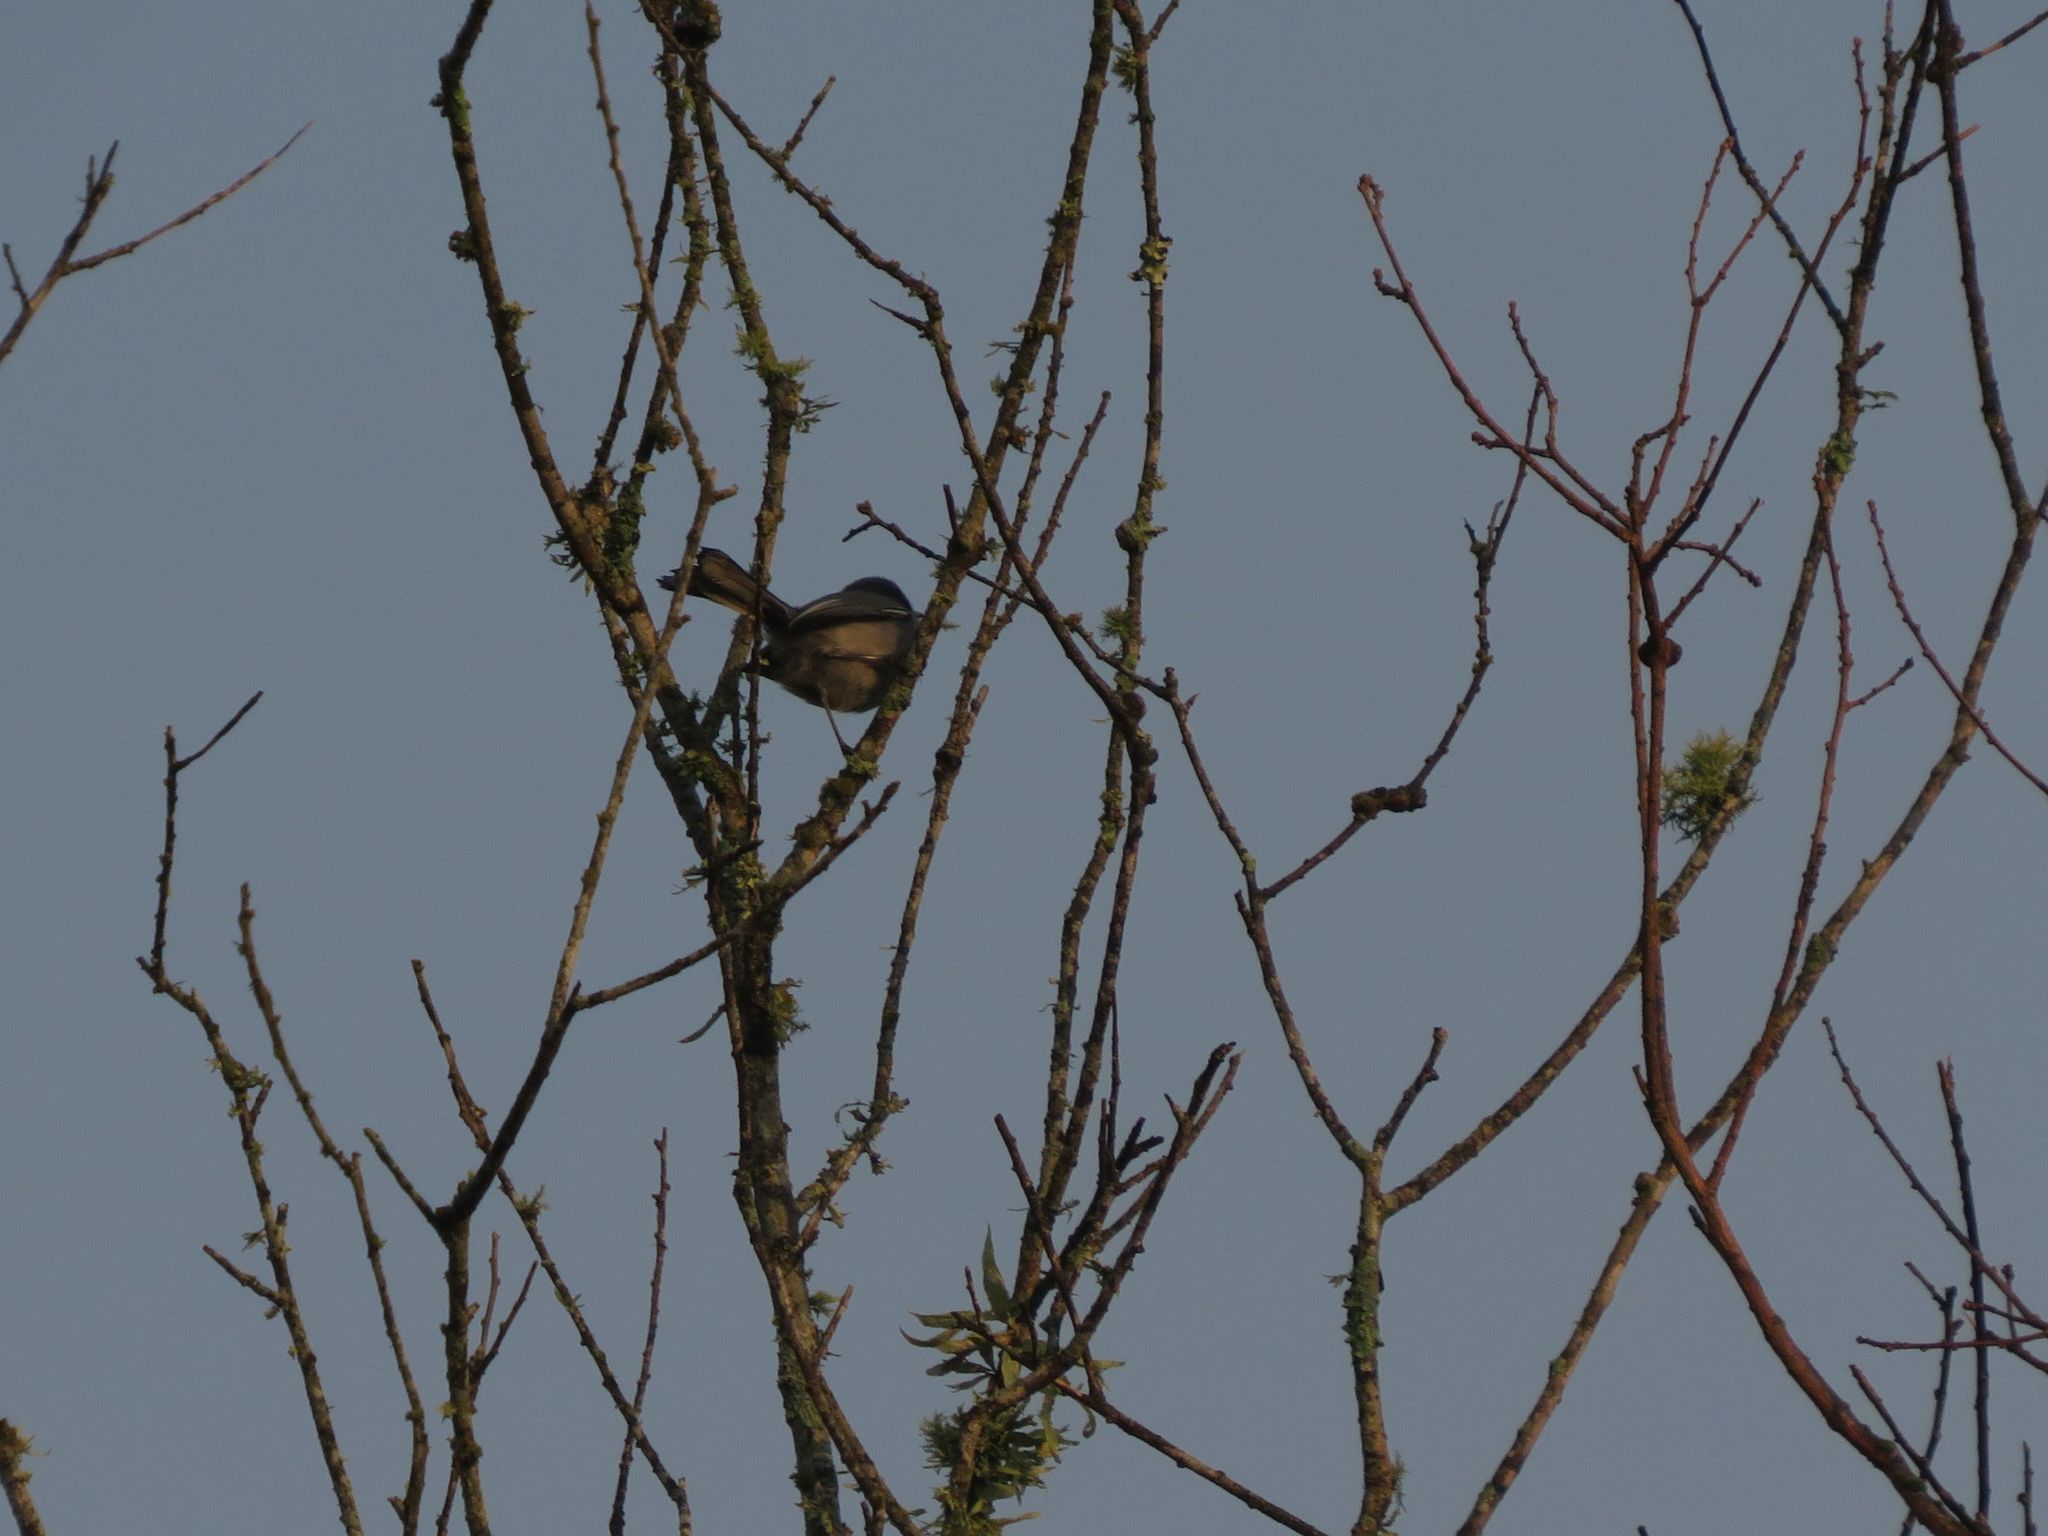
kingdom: Animalia
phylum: Chordata
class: Aves
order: Passeriformes
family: Polioptilidae
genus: Polioptila
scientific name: Polioptila dumicola
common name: Masked gnatcatcher
